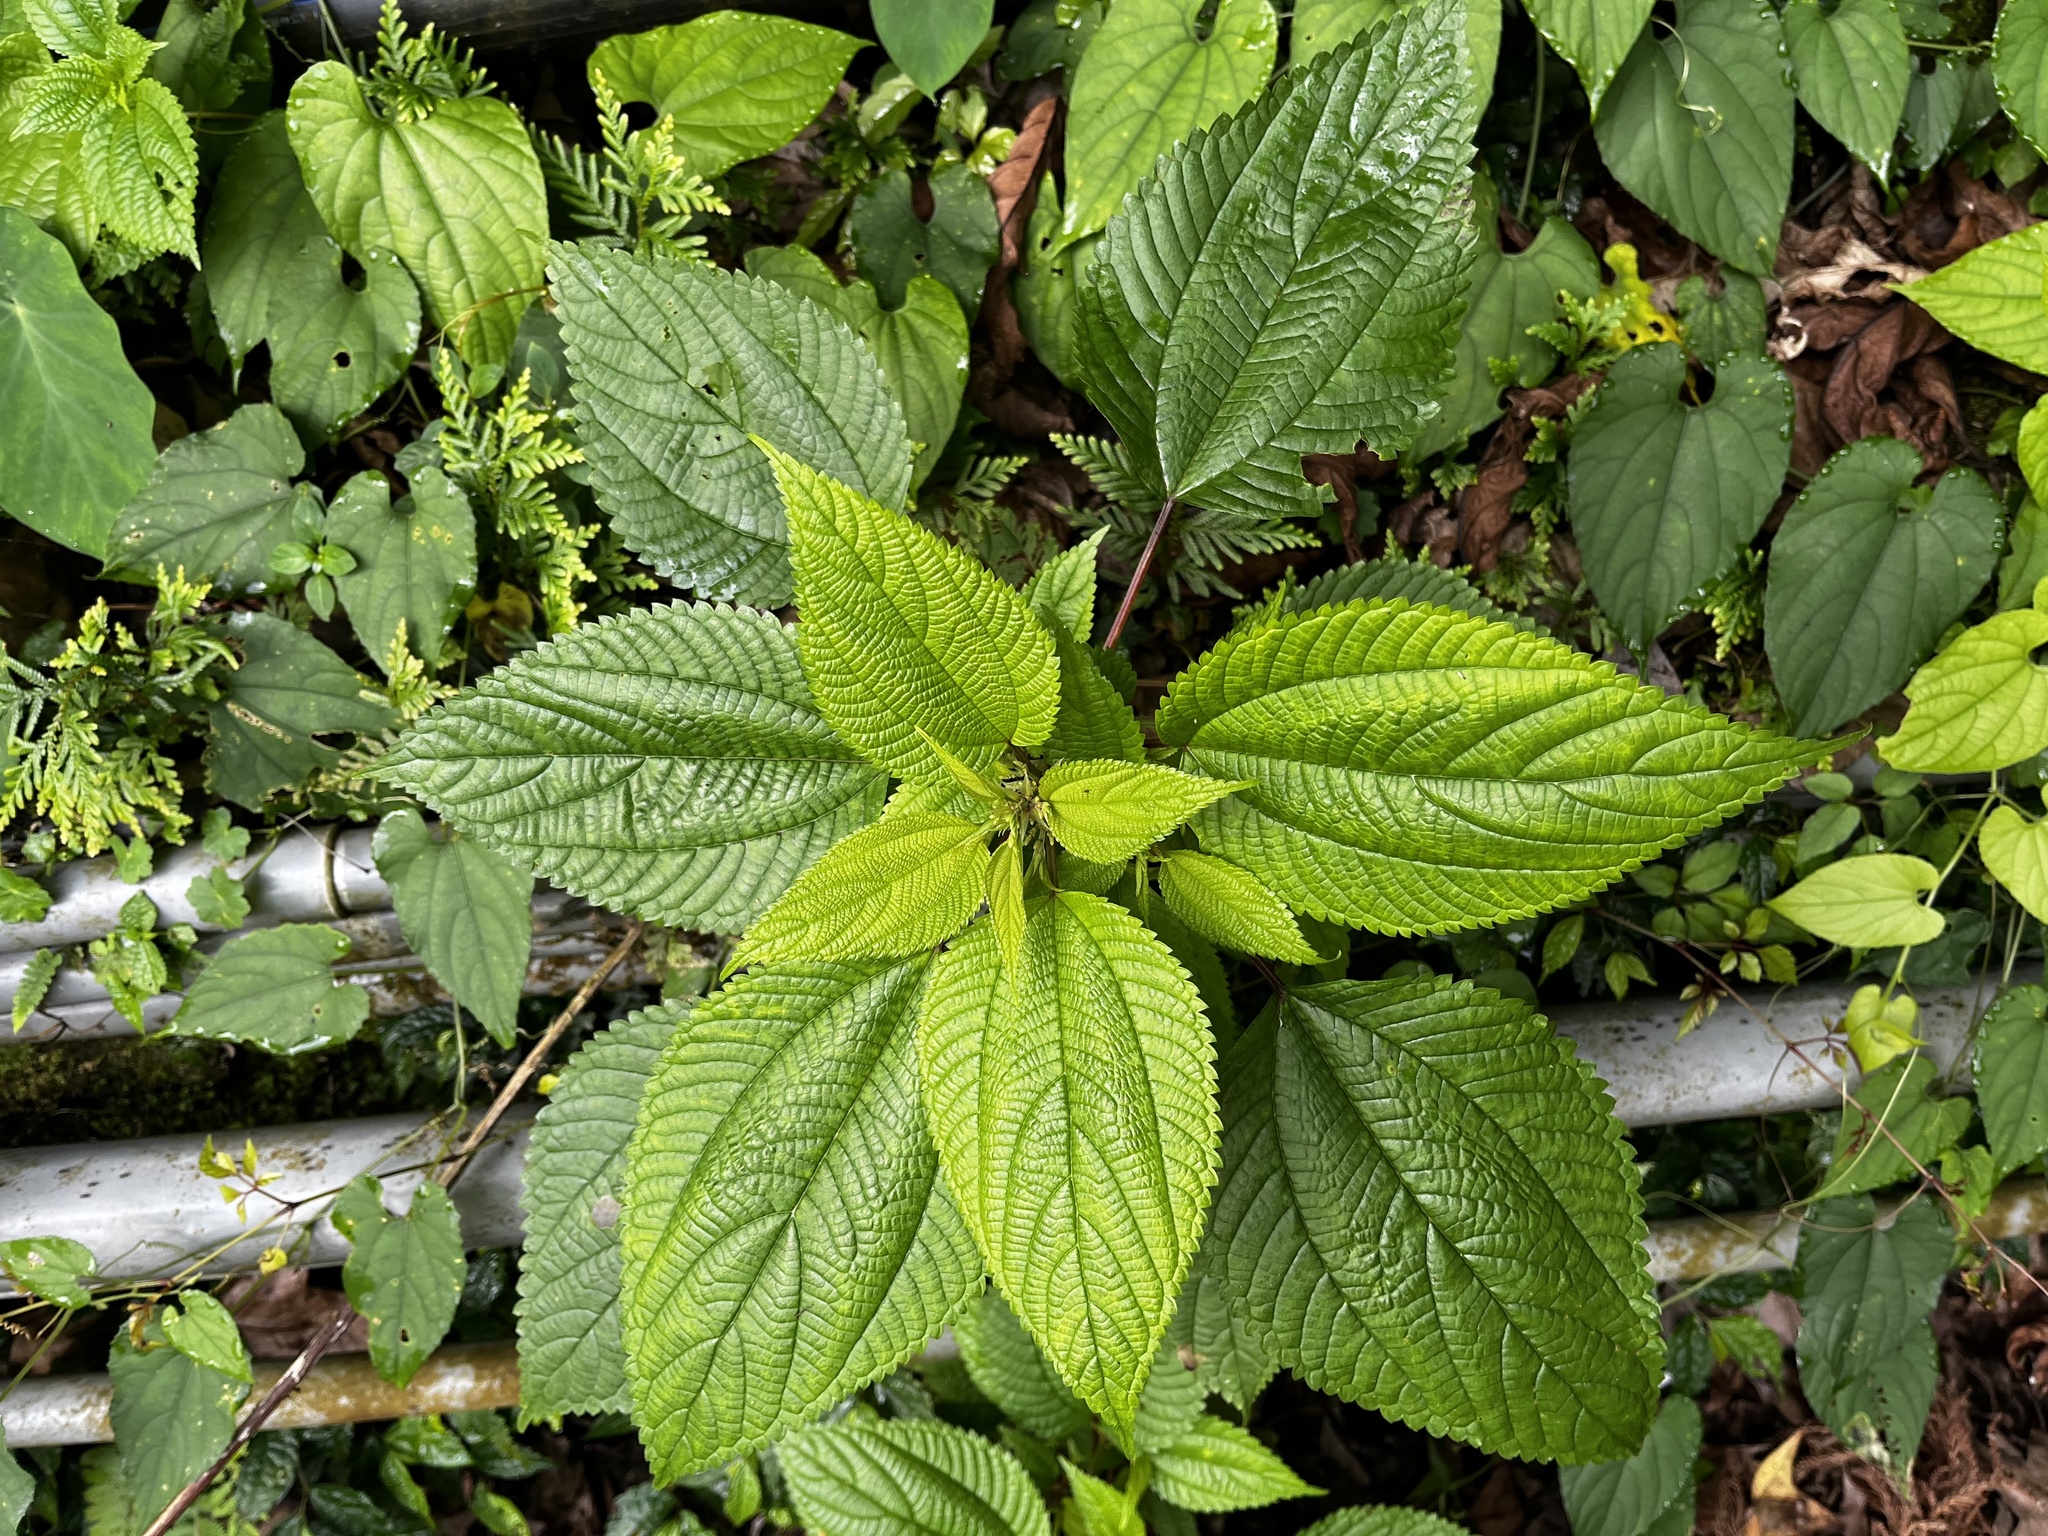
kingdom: Plantae
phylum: Tracheophyta
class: Magnoliopsida
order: Rosales
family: Urticaceae
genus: Boehmeria
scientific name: Boehmeria sieboldiana
